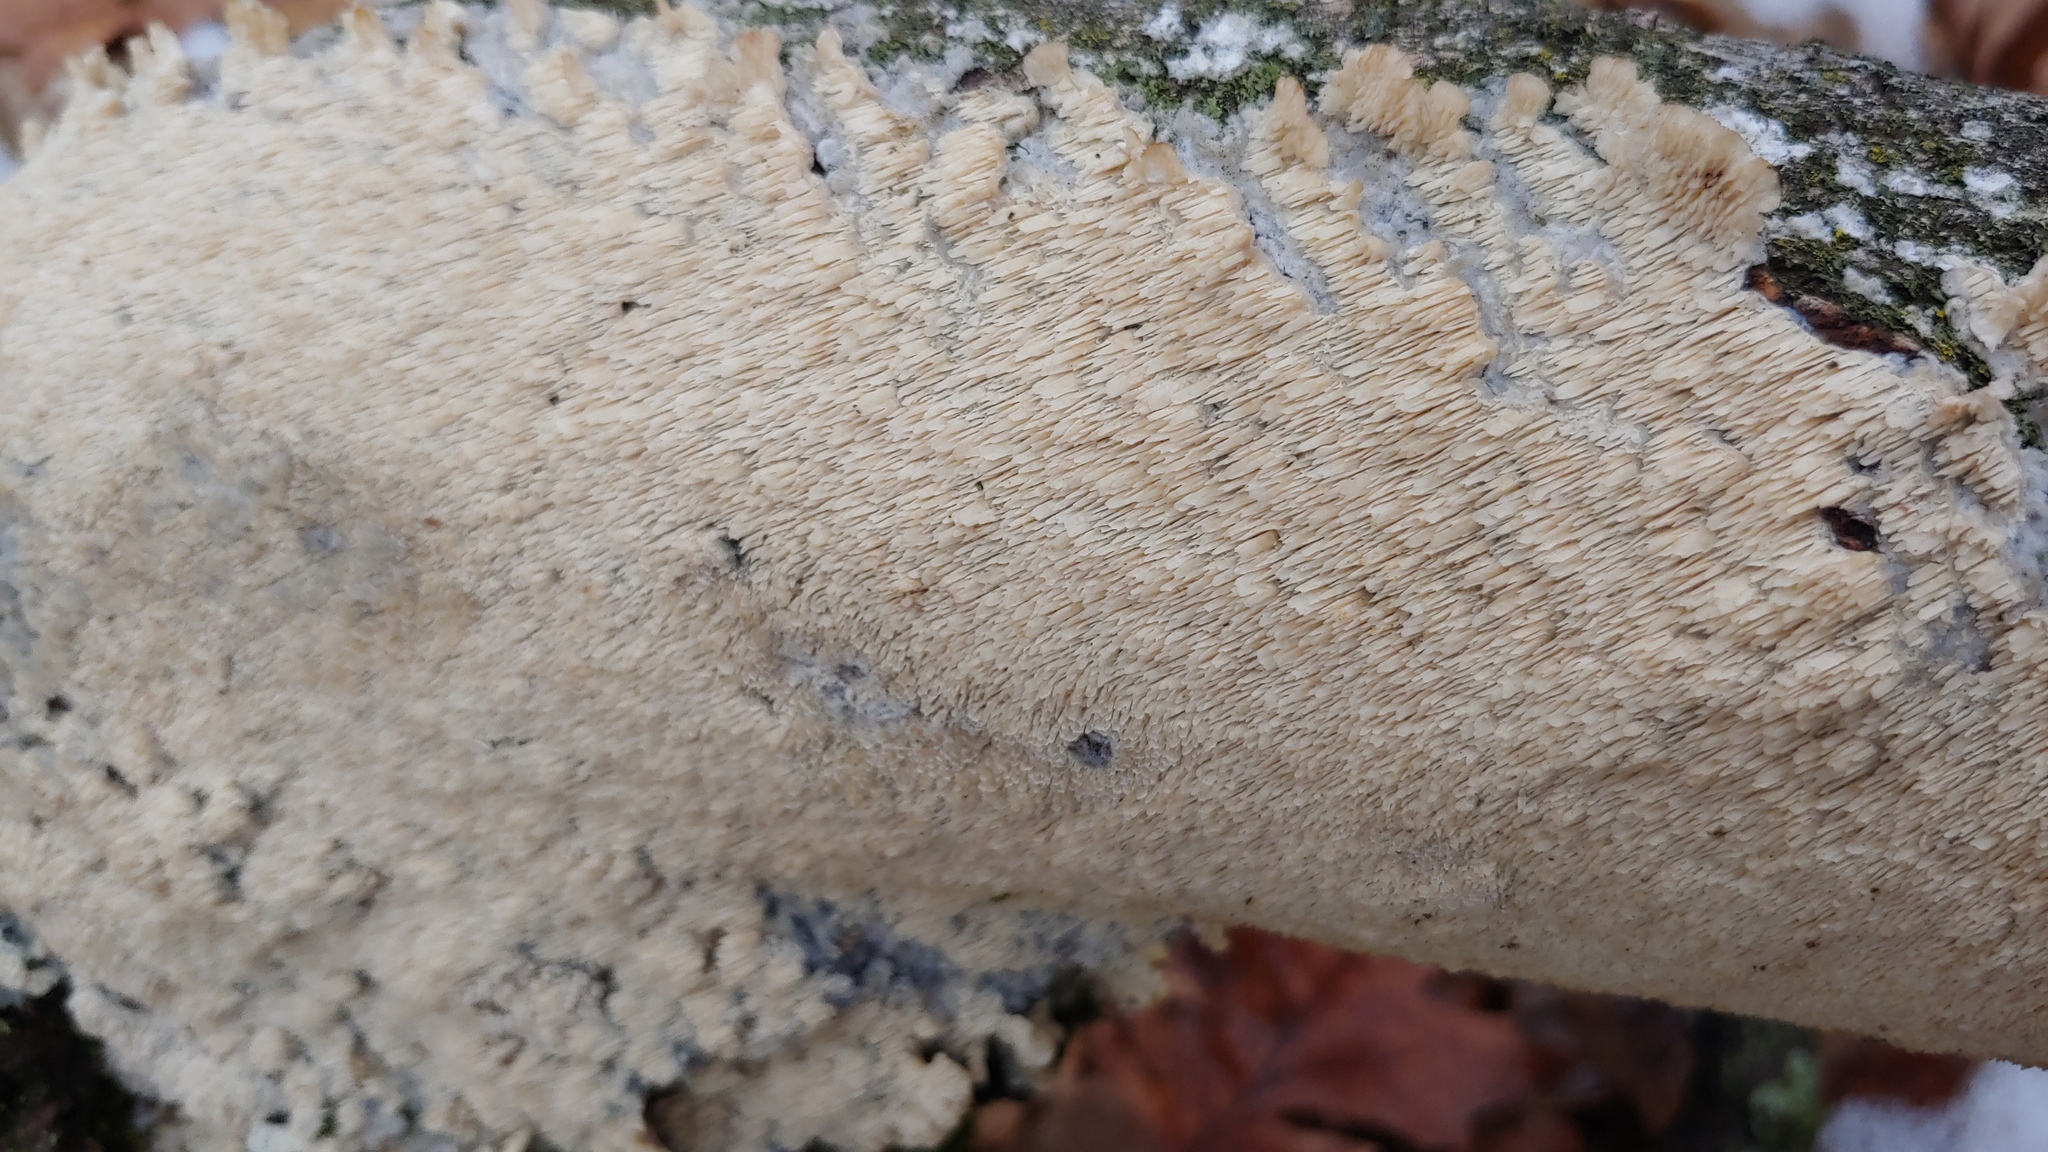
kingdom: Fungi
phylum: Basidiomycota
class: Agaricomycetes
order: Polyporales
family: Irpicaceae
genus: Irpex
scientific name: Irpex lacteus
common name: Milk-white toothed polypore
